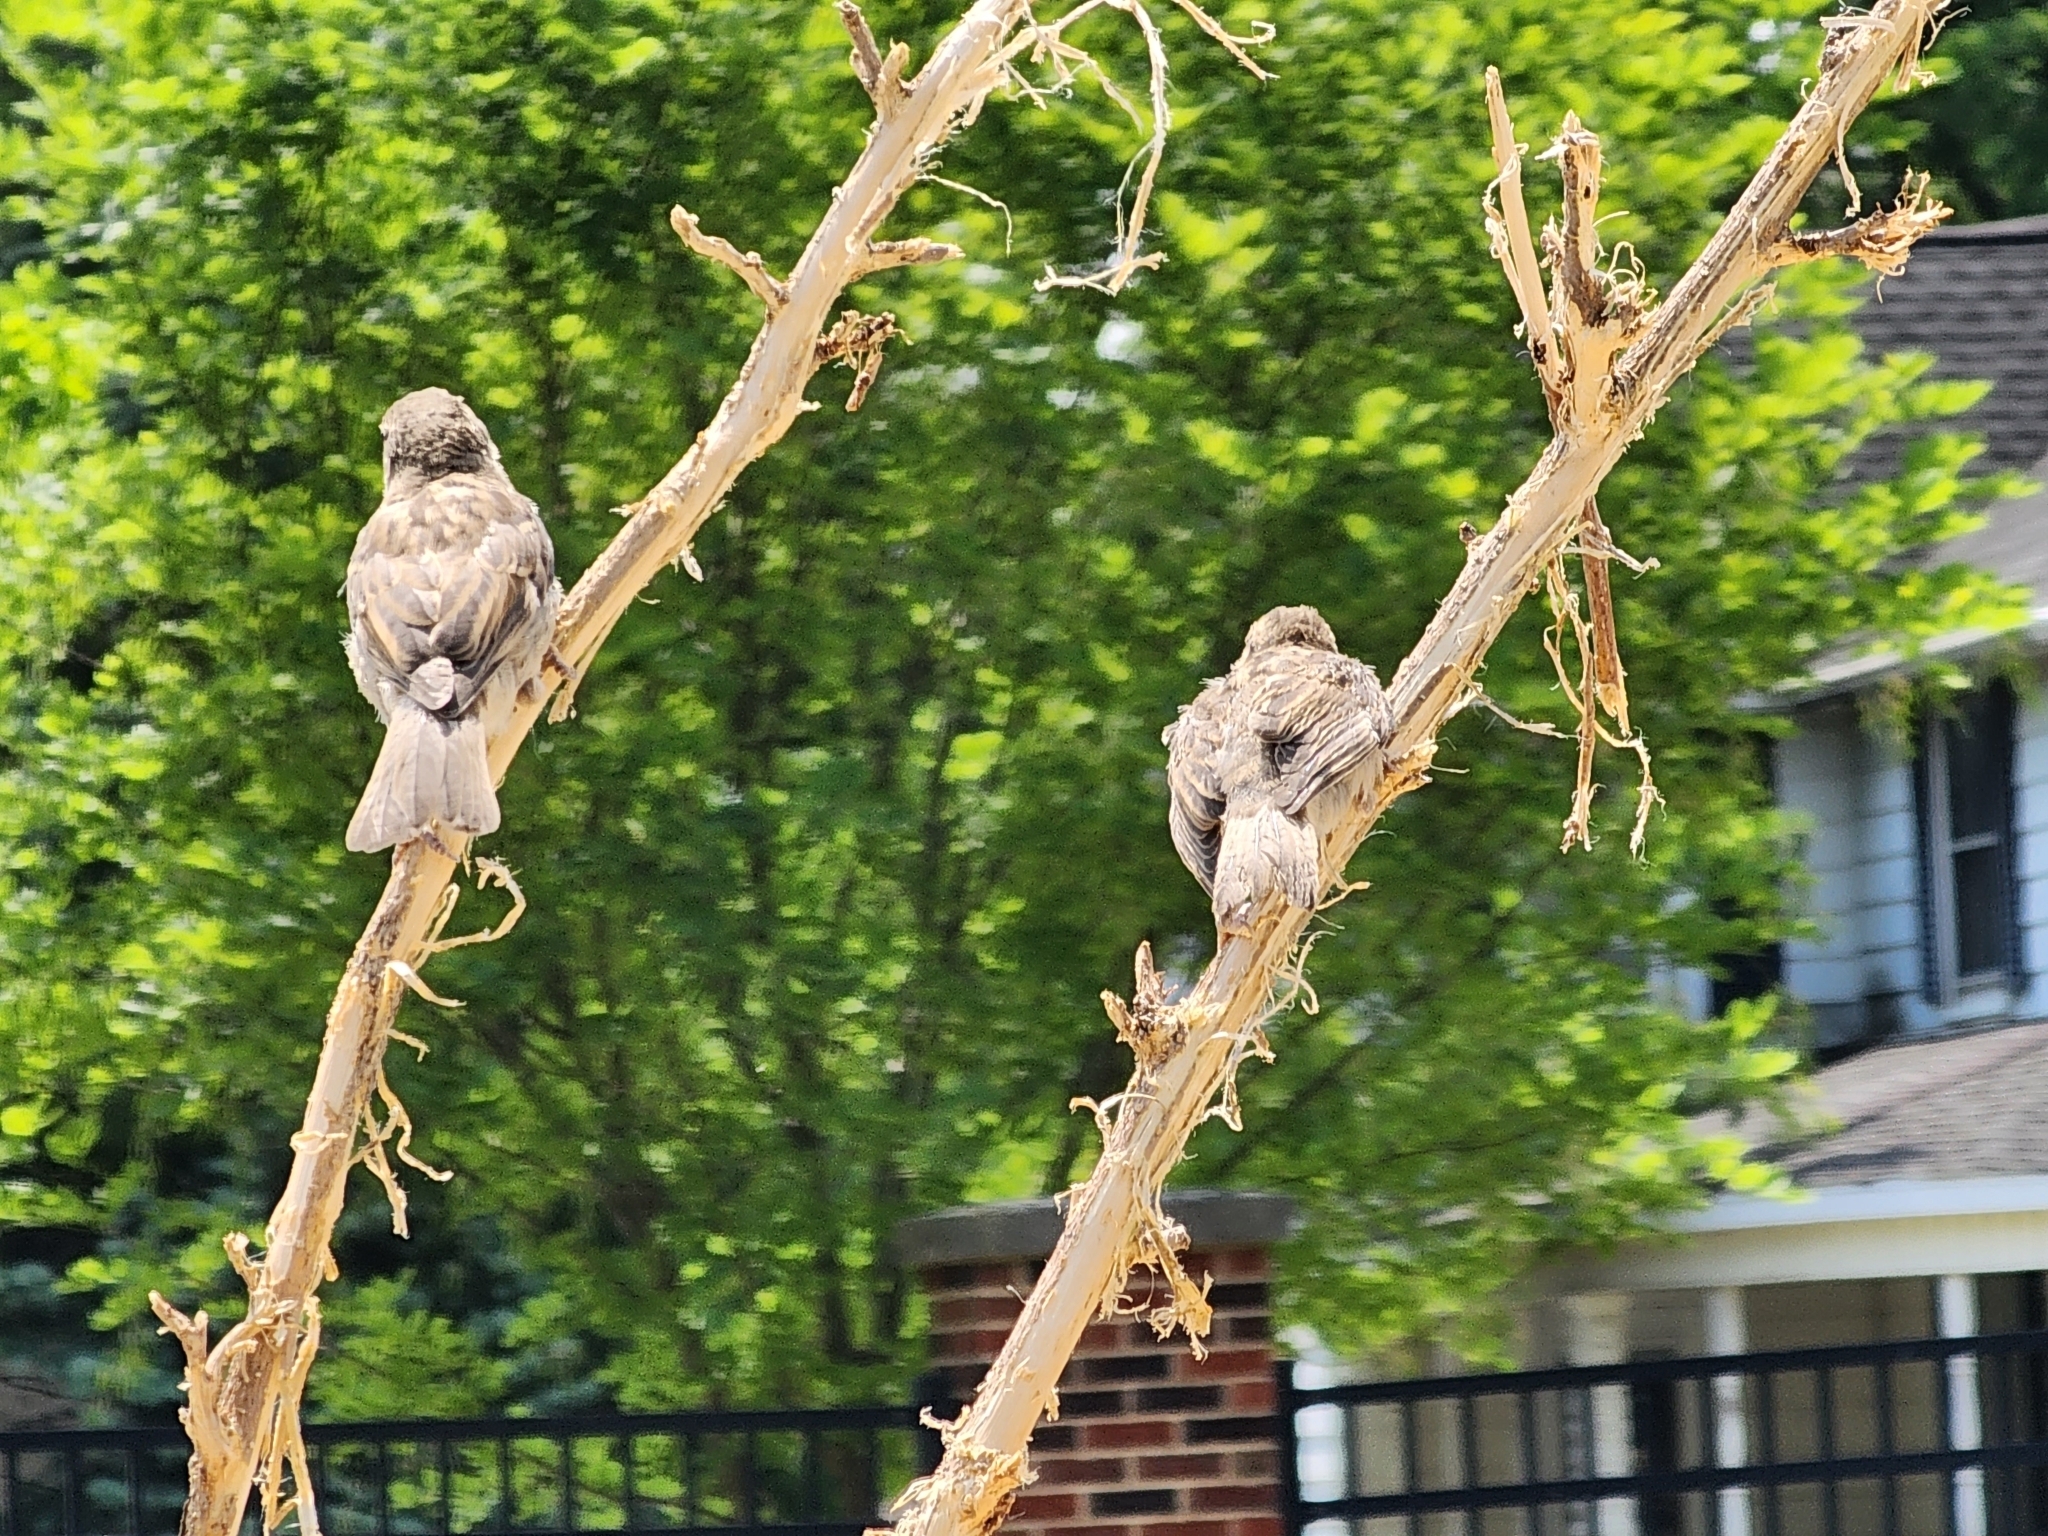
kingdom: Animalia
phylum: Chordata
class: Aves
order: Passeriformes
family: Passeridae
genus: Passer
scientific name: Passer domesticus
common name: House sparrow
